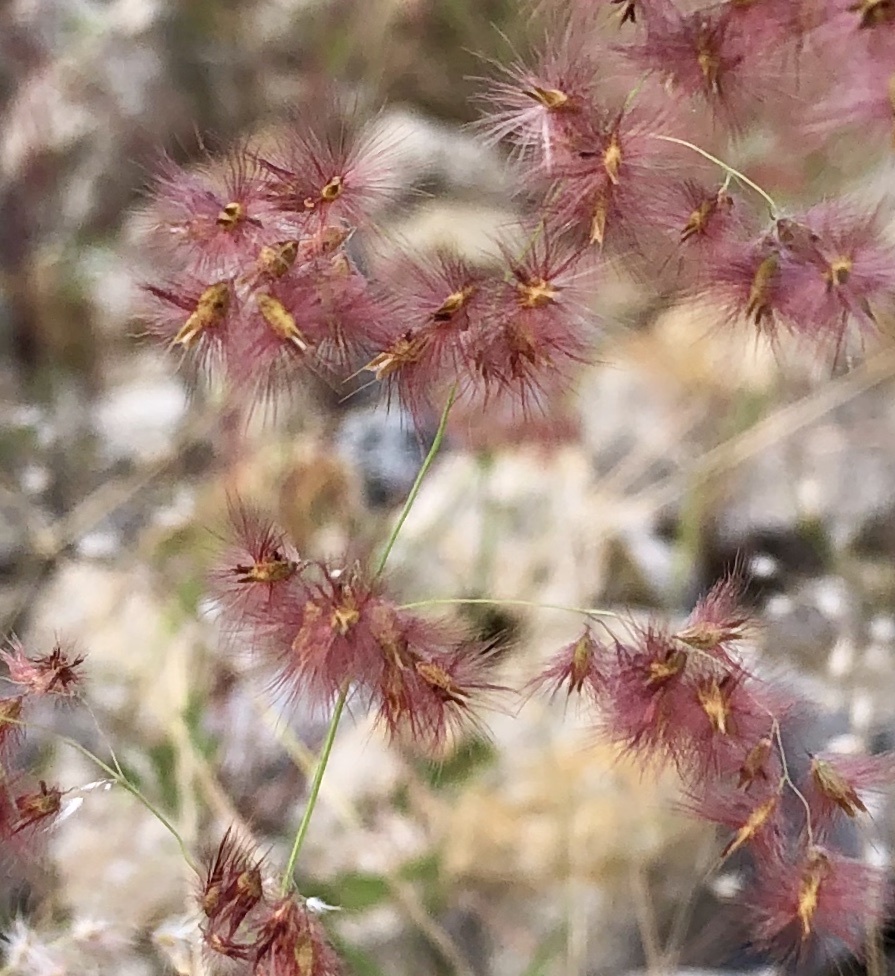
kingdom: Plantae
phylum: Tracheophyta
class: Liliopsida
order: Poales
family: Poaceae
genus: Melinis
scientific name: Melinis repens
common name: Rose natal grass
